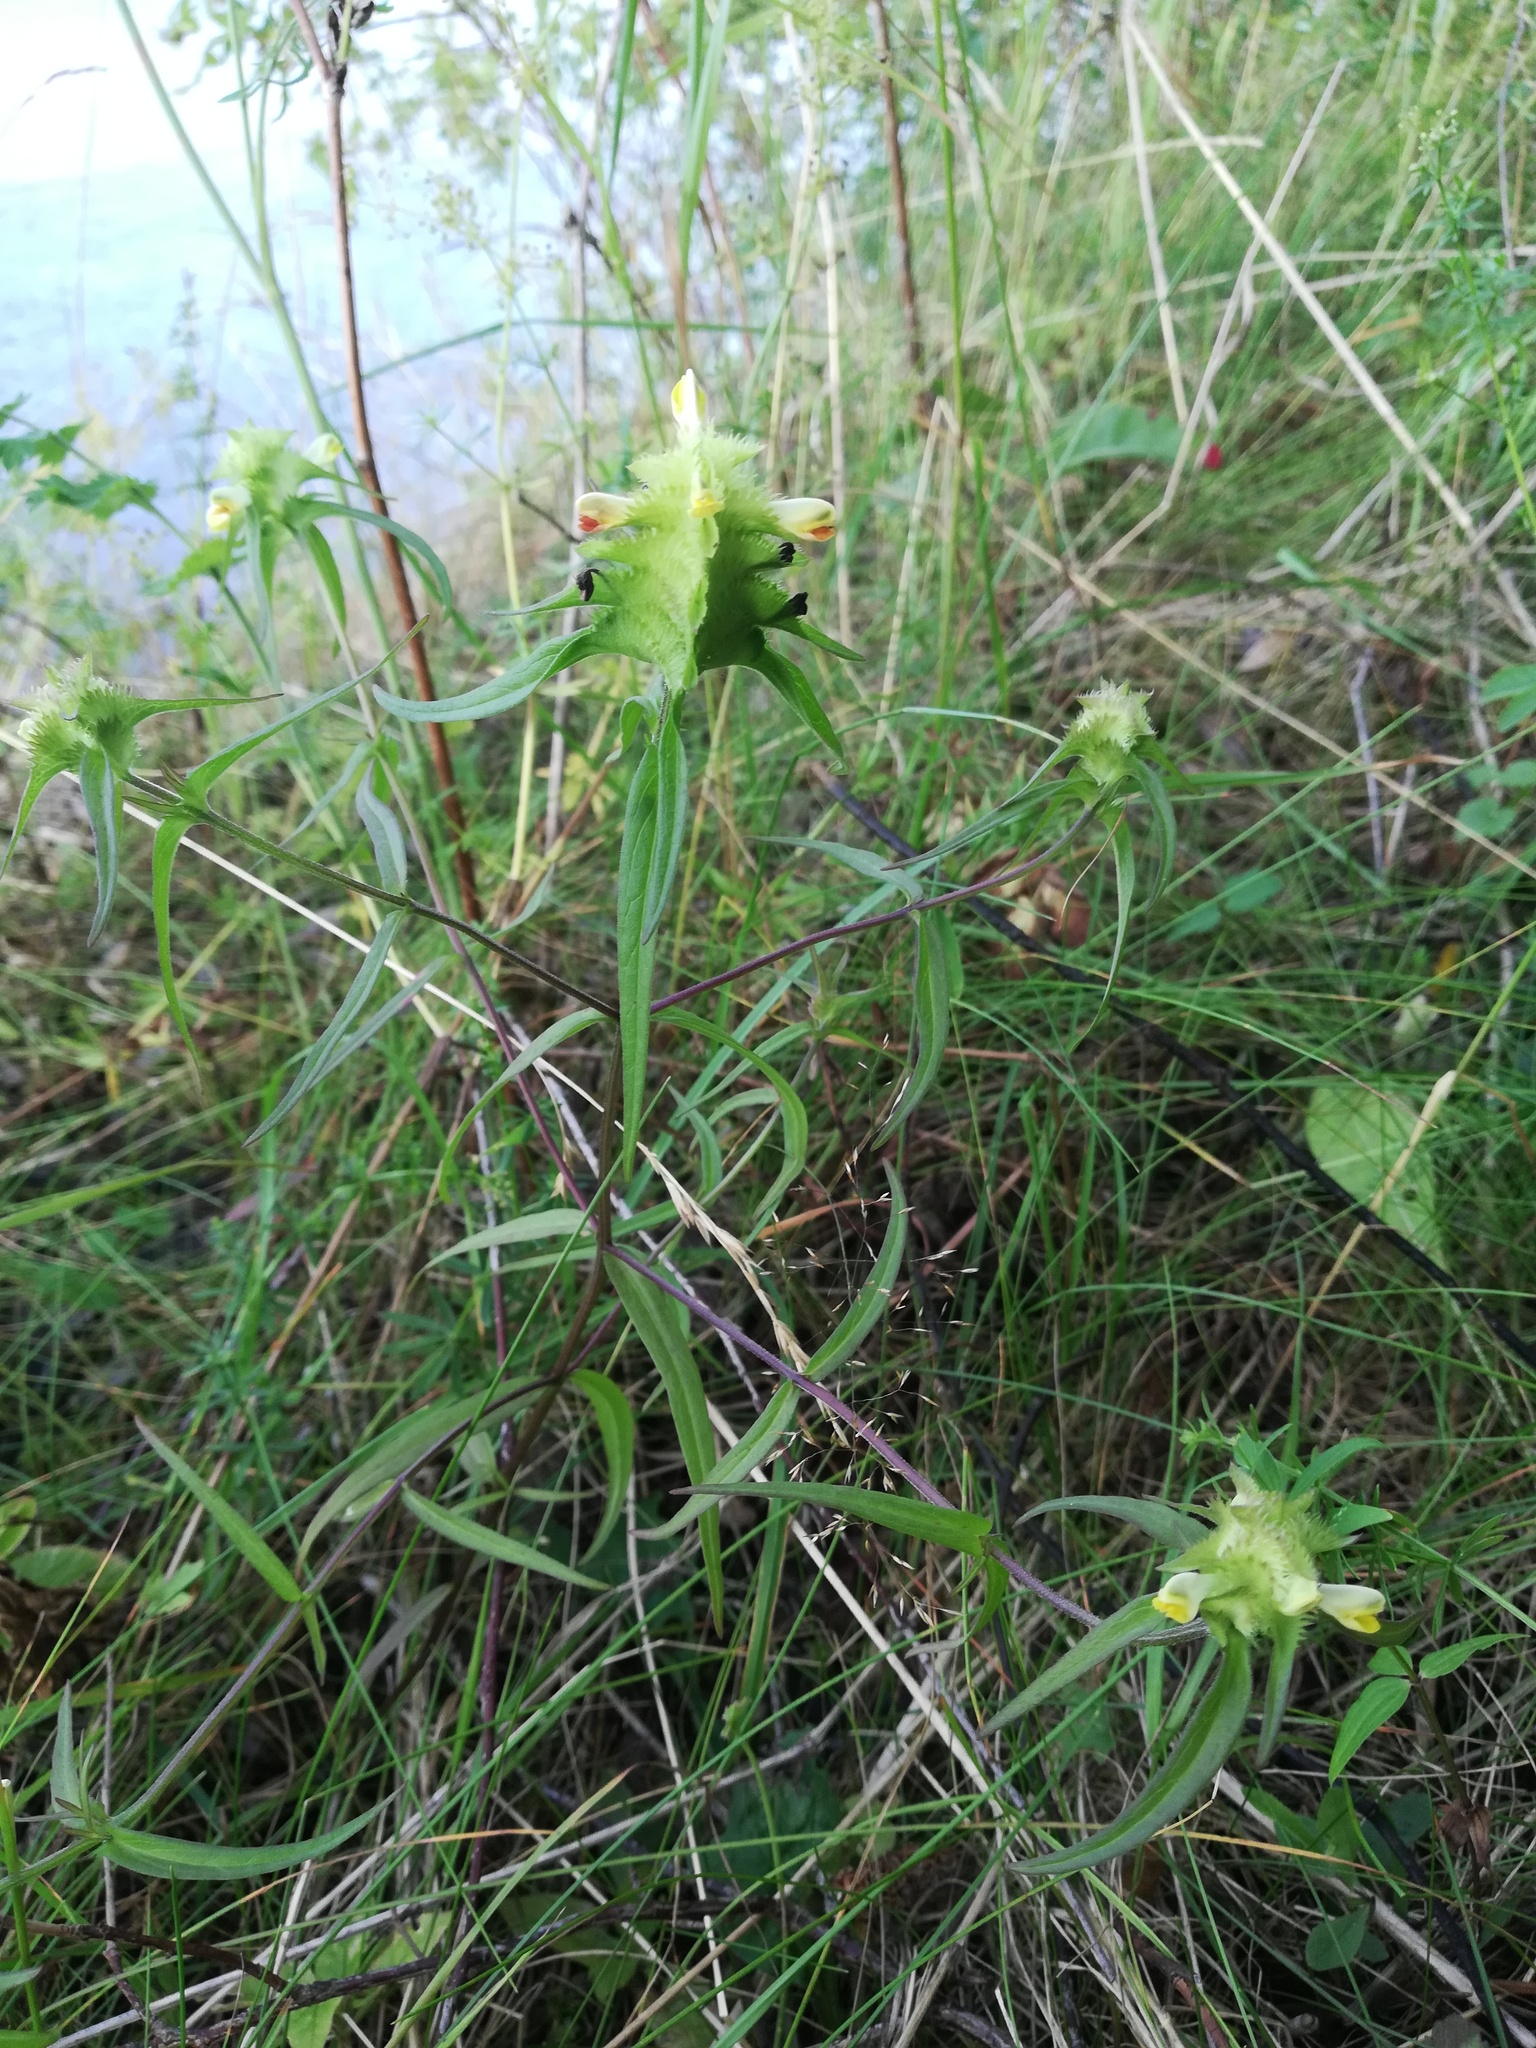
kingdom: Plantae
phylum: Tracheophyta
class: Magnoliopsida
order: Lamiales
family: Orobanchaceae
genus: Melampyrum
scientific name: Melampyrum cristatum
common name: Crested cow-wheat
